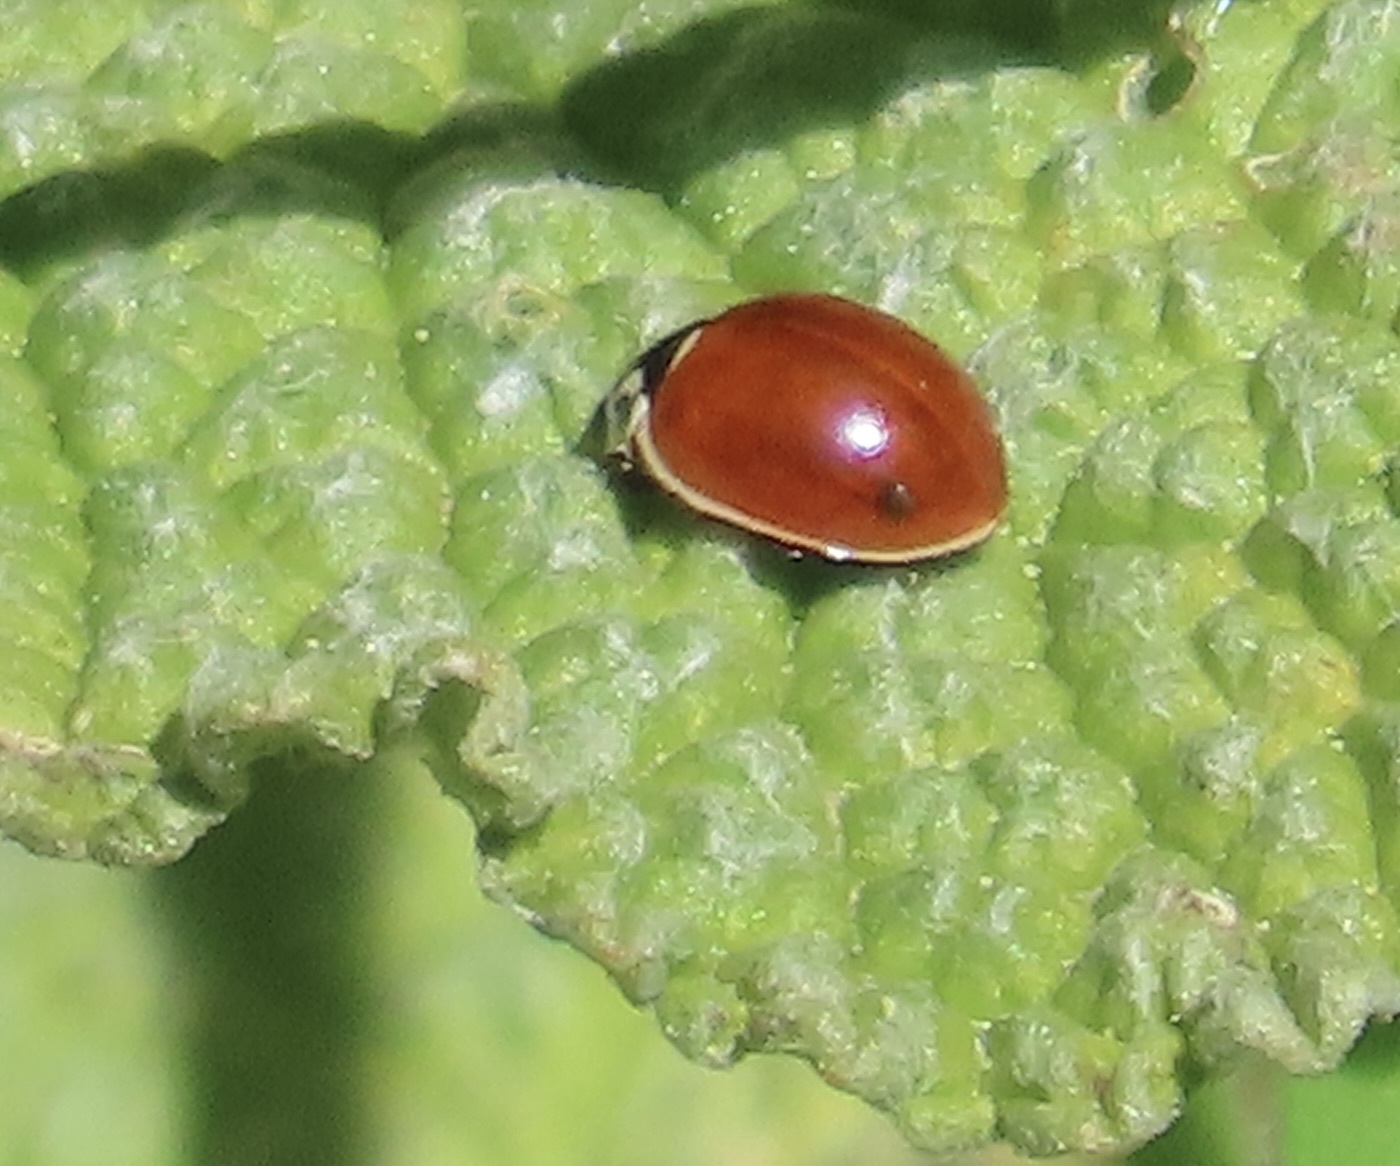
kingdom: Animalia
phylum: Arthropoda
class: Insecta
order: Coleoptera
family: Coccinellidae
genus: Cycloneda
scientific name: Cycloneda polita
